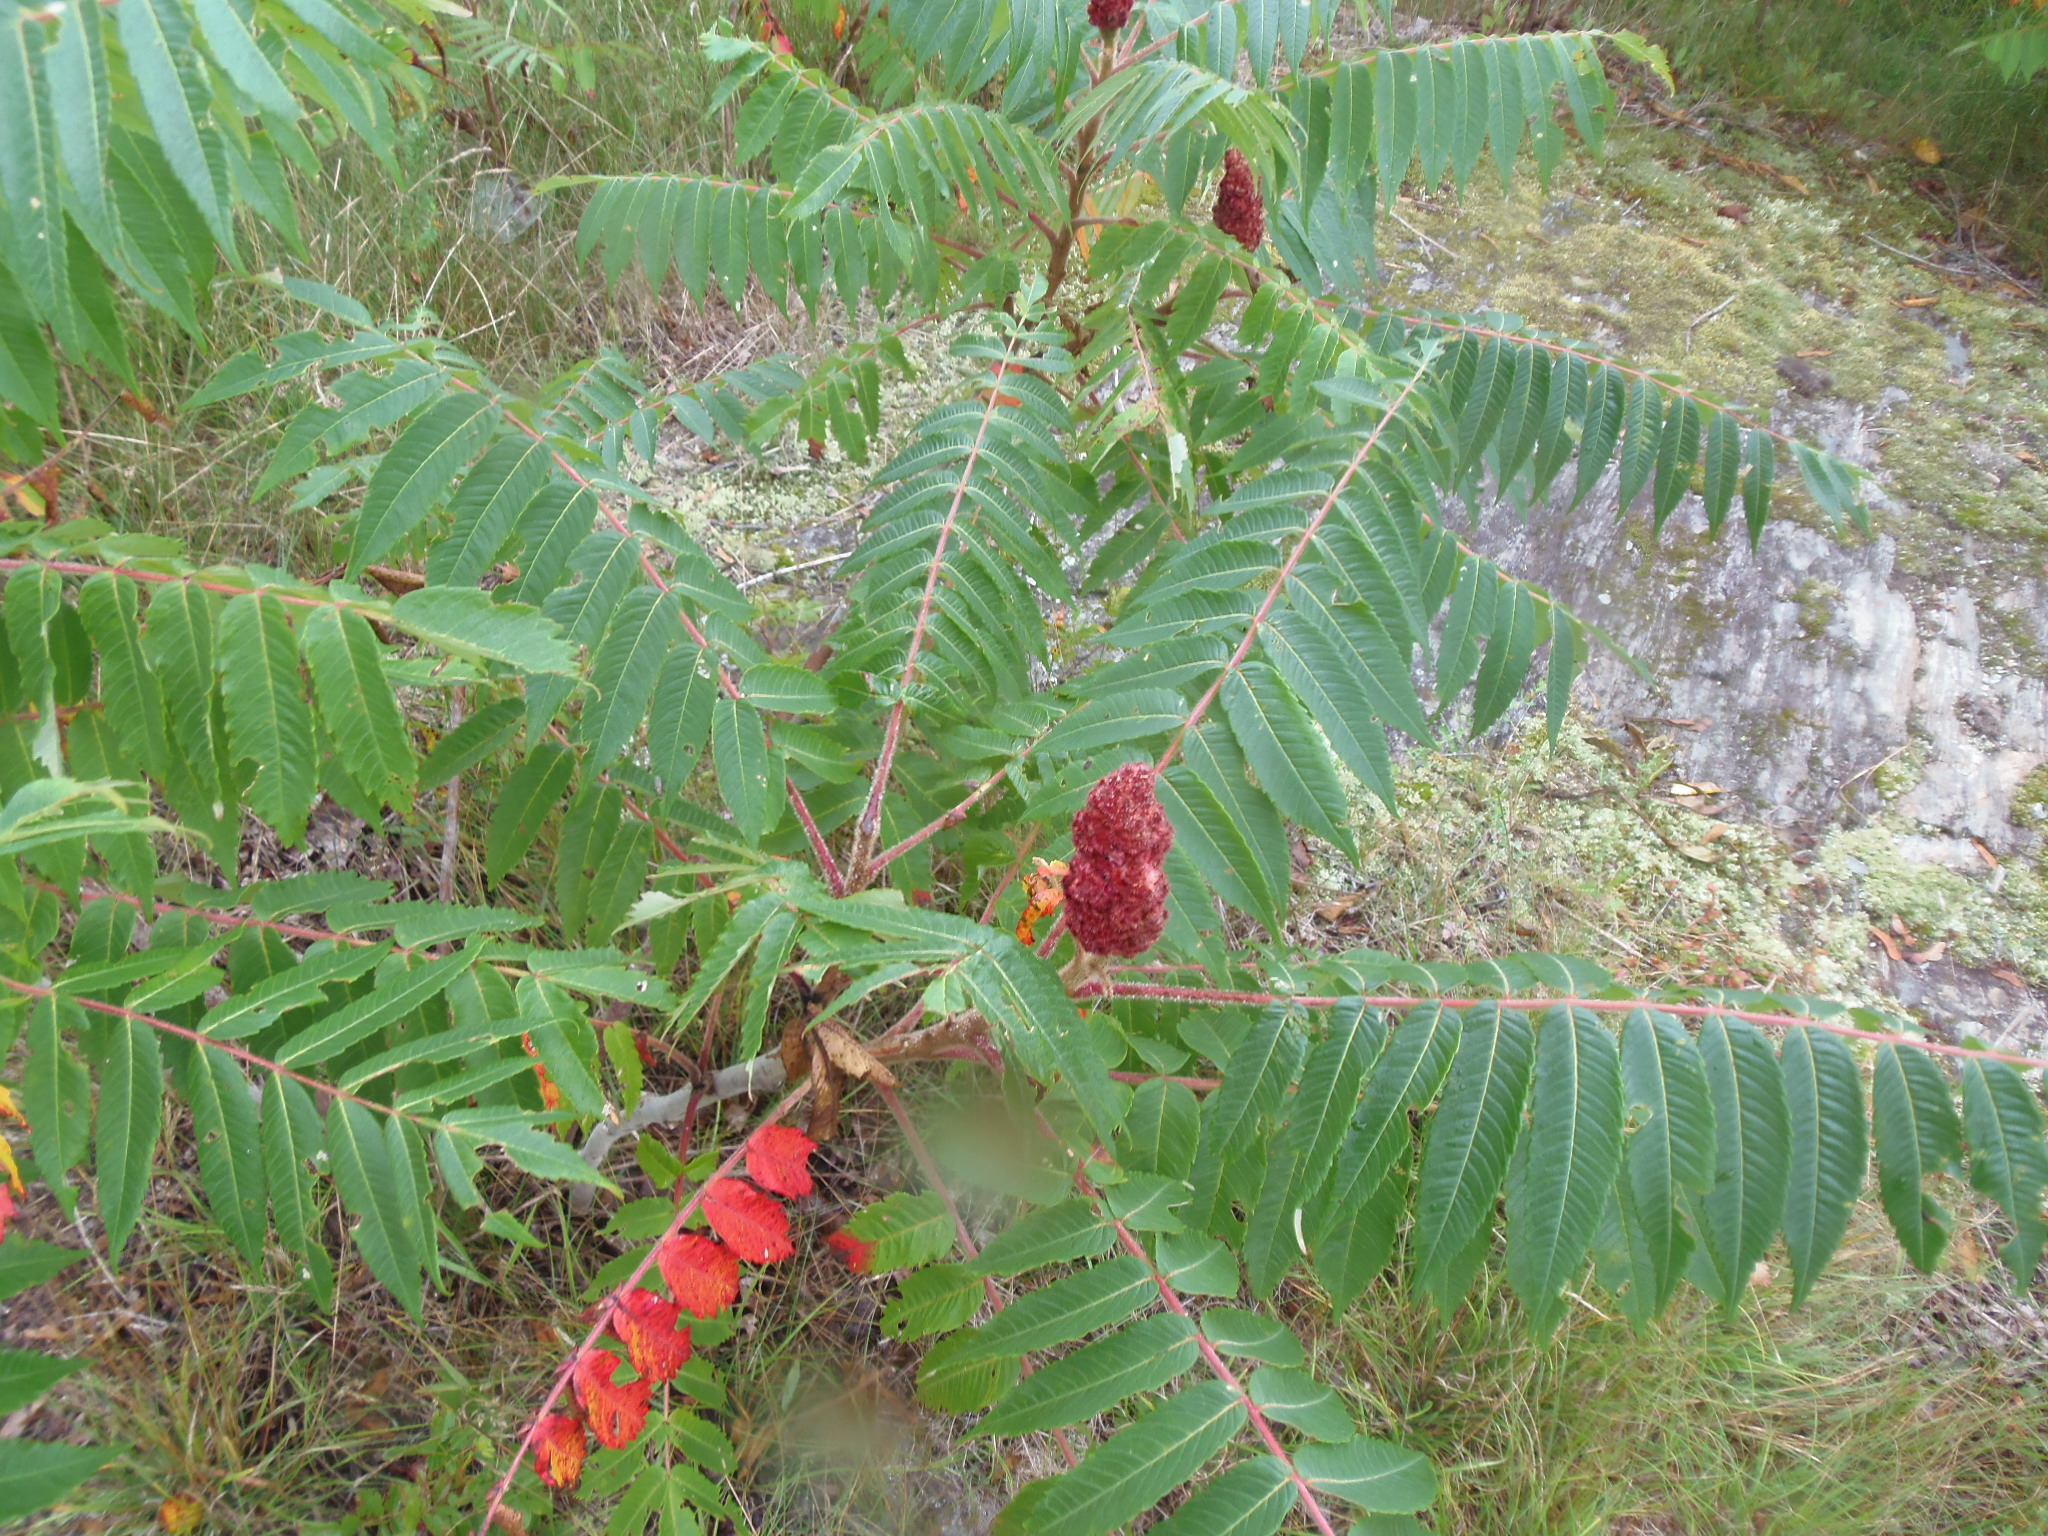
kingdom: Plantae
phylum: Tracheophyta
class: Magnoliopsida
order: Sapindales
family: Anacardiaceae
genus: Rhus
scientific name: Rhus typhina
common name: Staghorn sumac
